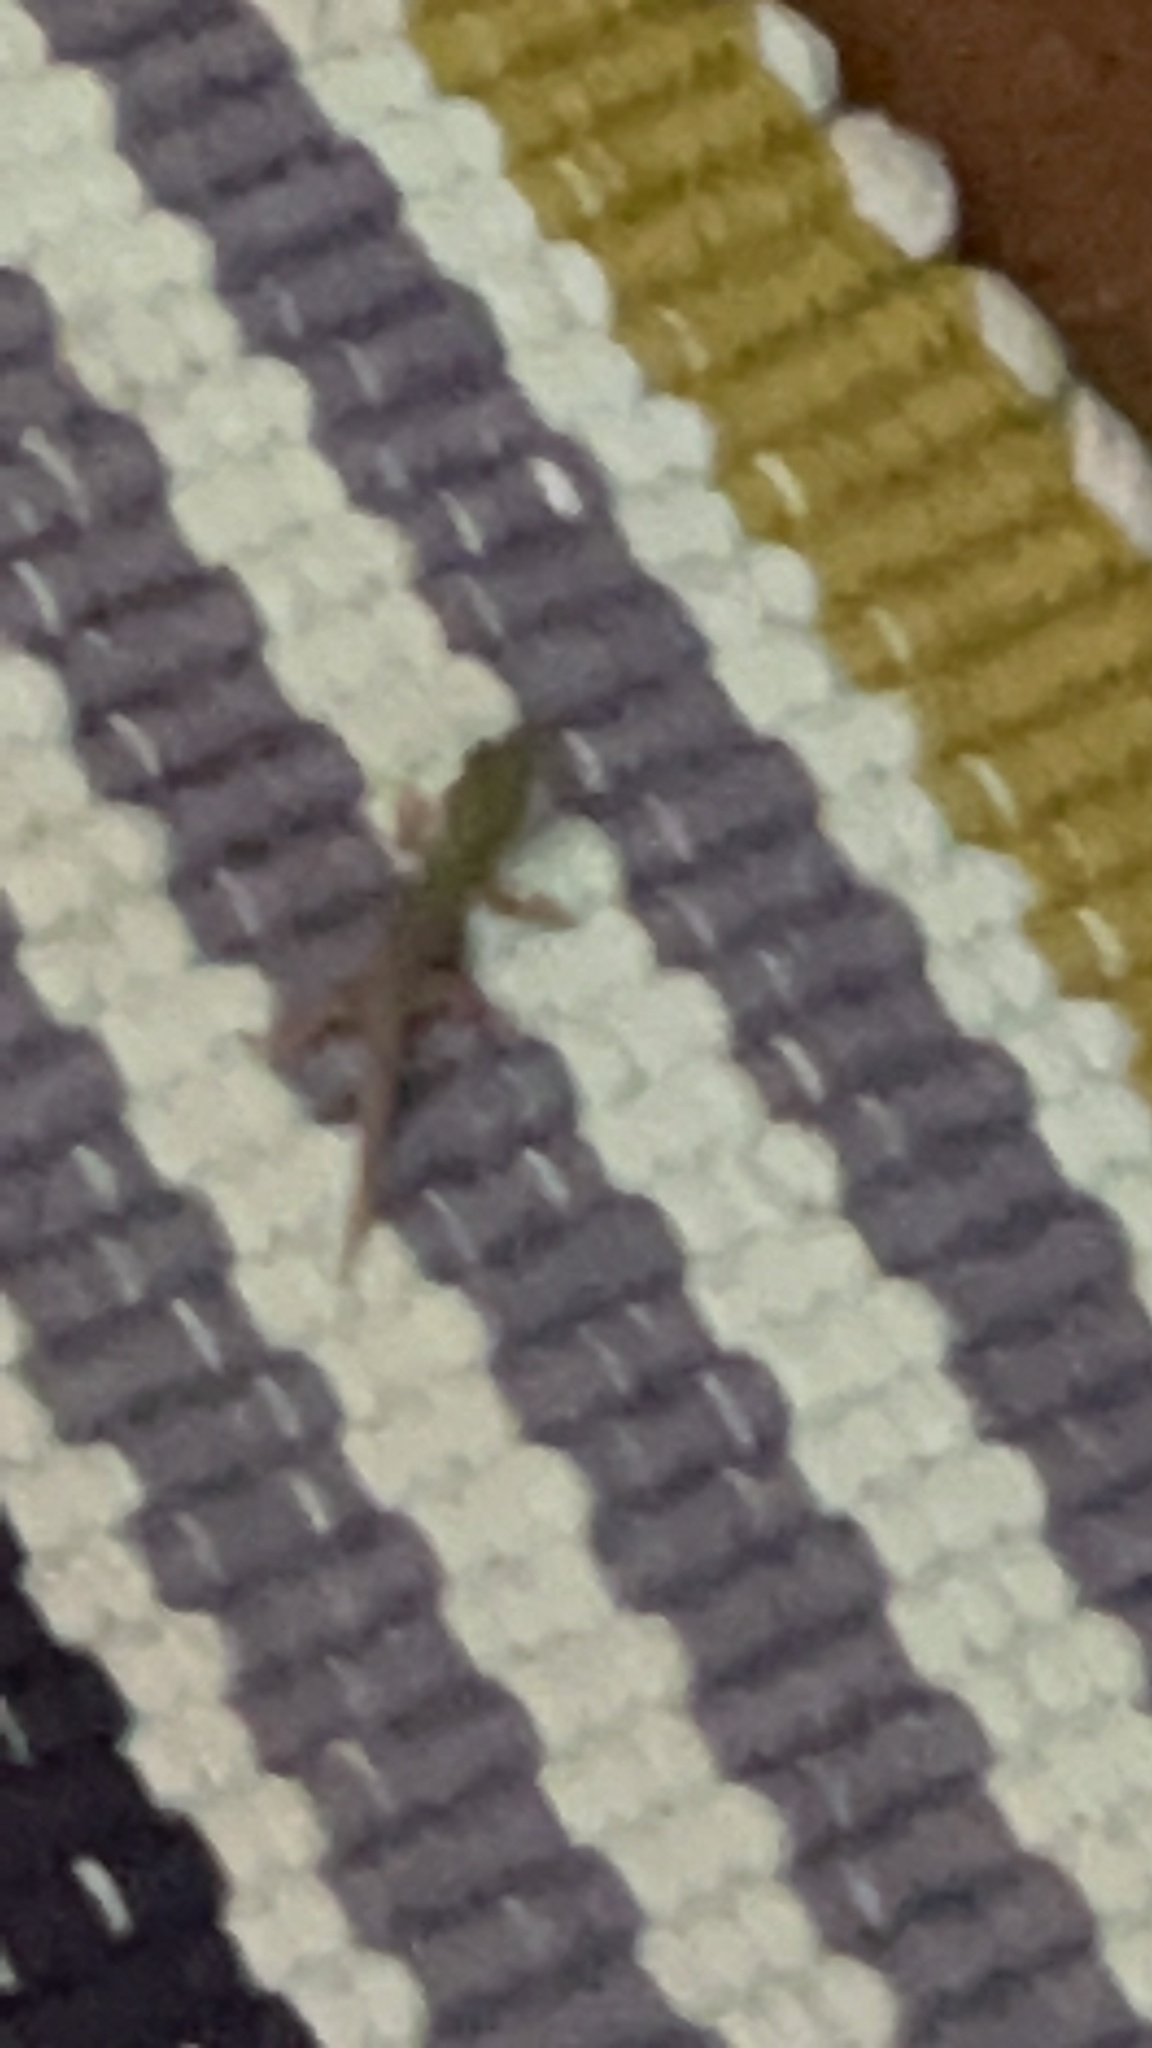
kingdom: Animalia
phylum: Chordata
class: Squamata
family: Gekkonidae
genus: Phelsuma
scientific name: Phelsuma laticauda
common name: Gold dust day gecko
